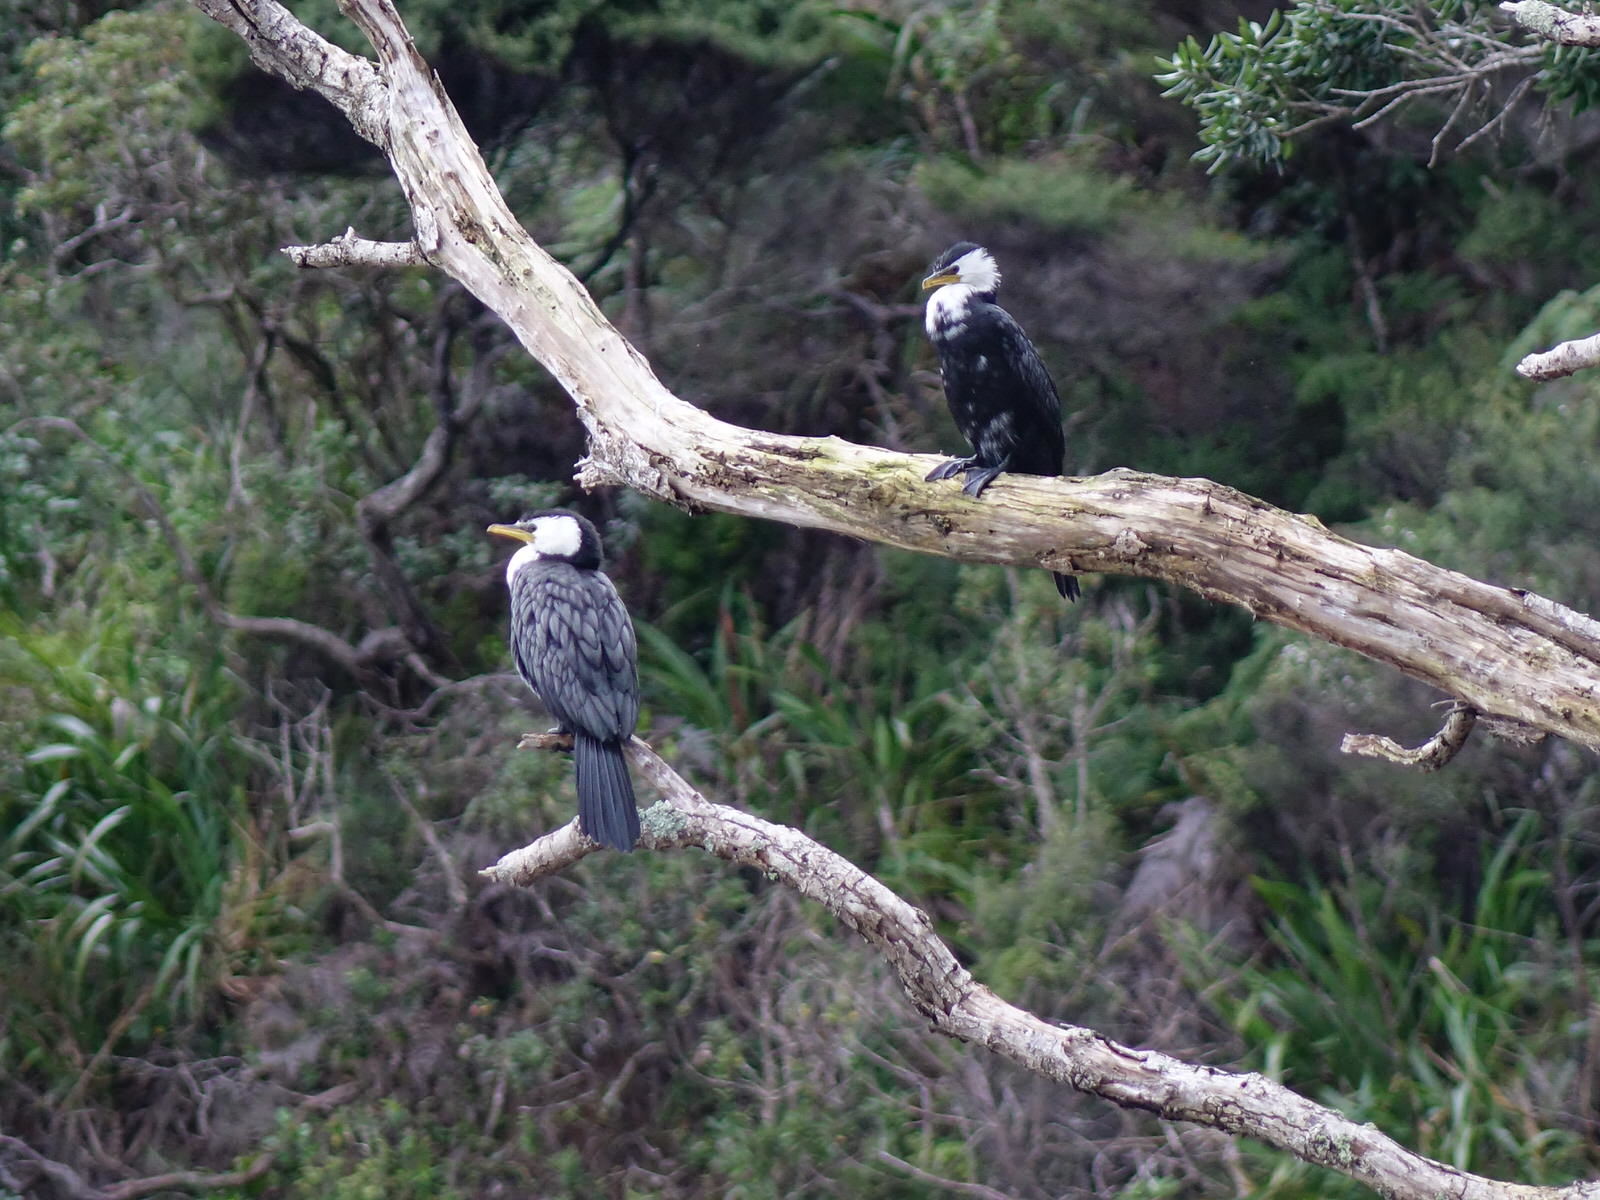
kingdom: Animalia
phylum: Chordata
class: Aves
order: Suliformes
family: Phalacrocoracidae
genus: Microcarbo
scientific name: Microcarbo melanoleucos
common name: Little pied cormorant
